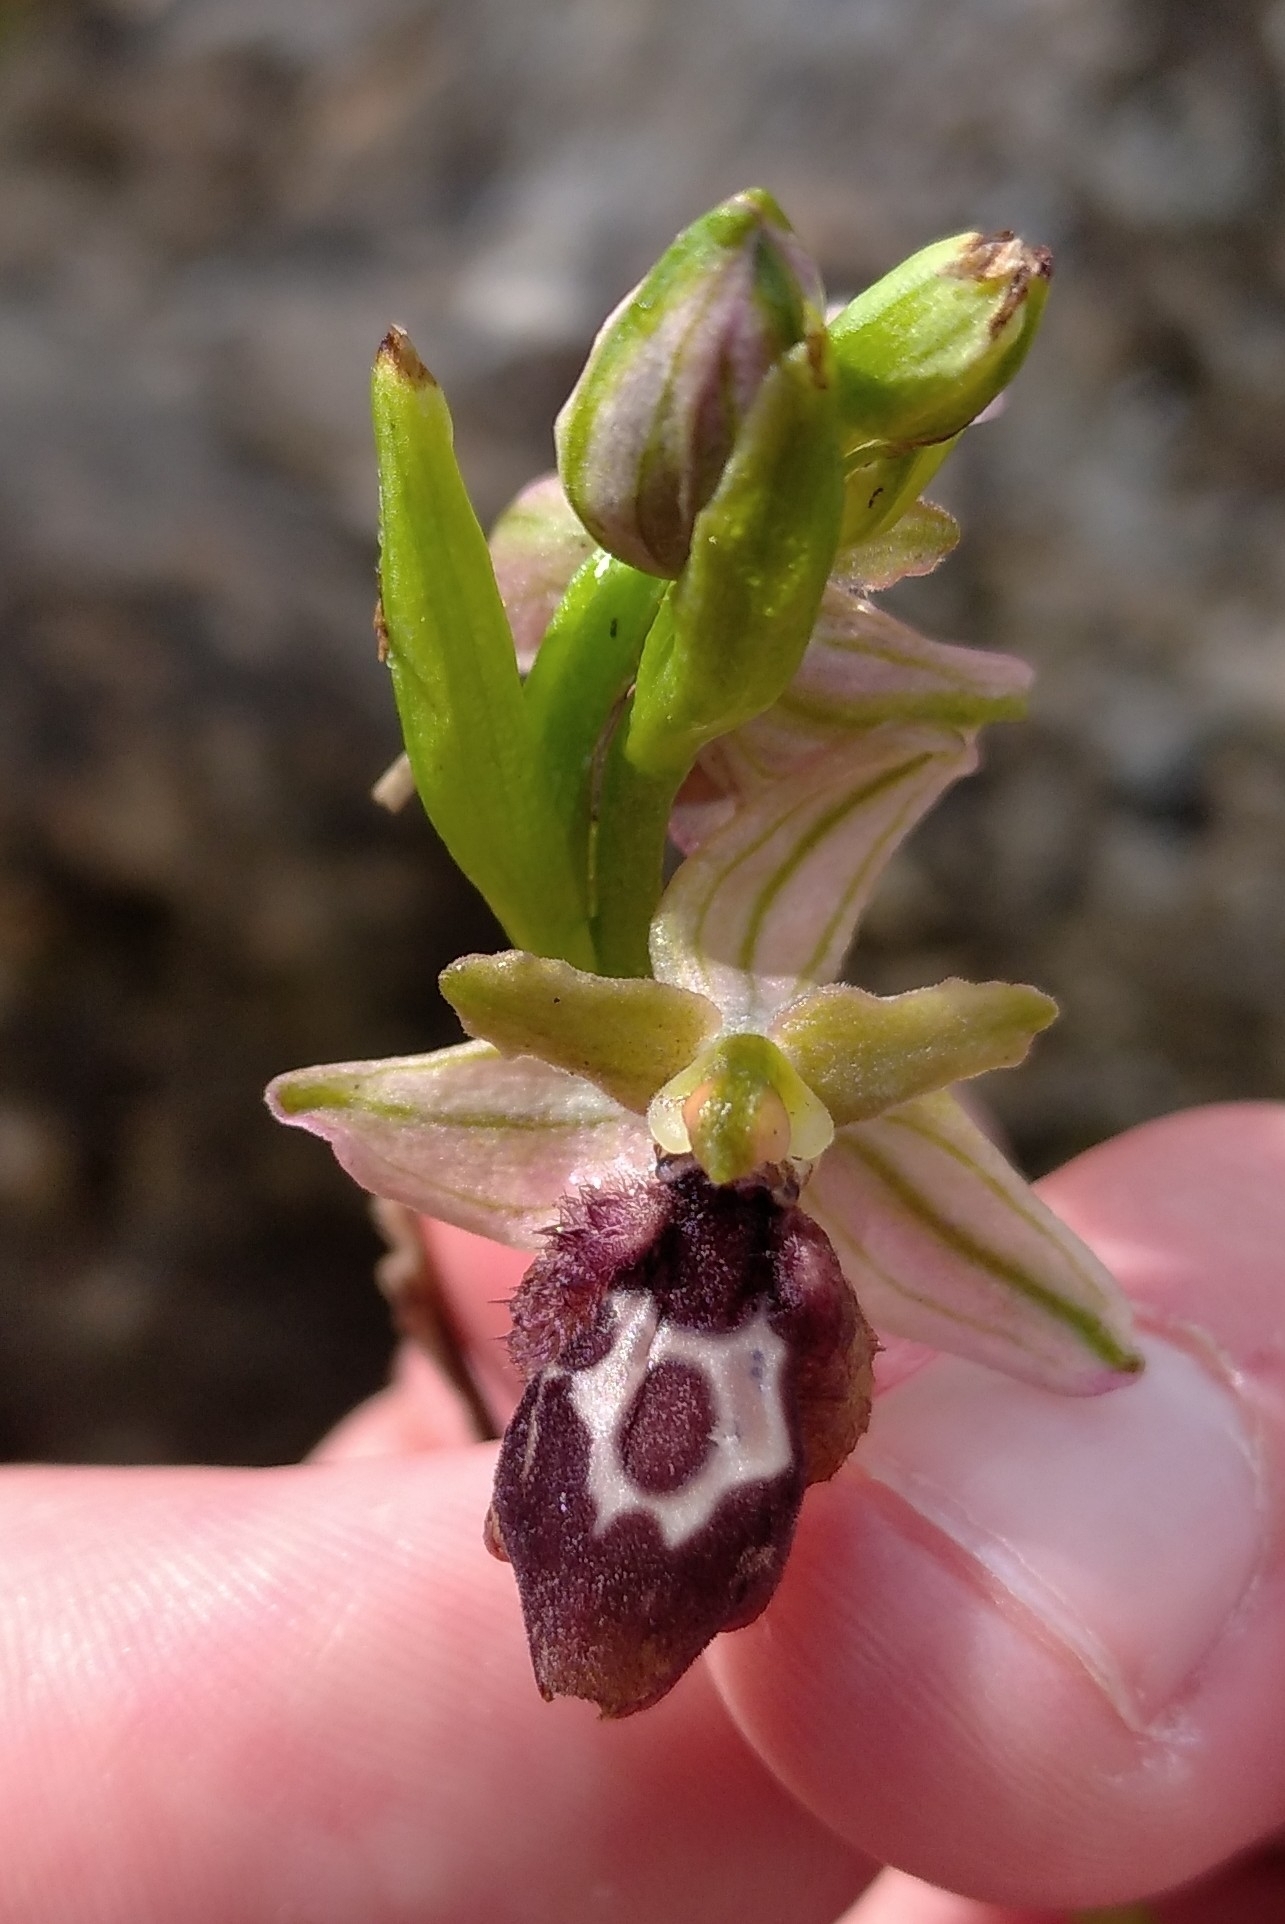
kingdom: Plantae
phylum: Tracheophyta
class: Liliopsida
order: Asparagales
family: Orchidaceae
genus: Ophrys
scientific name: Ophrys reinholdii
